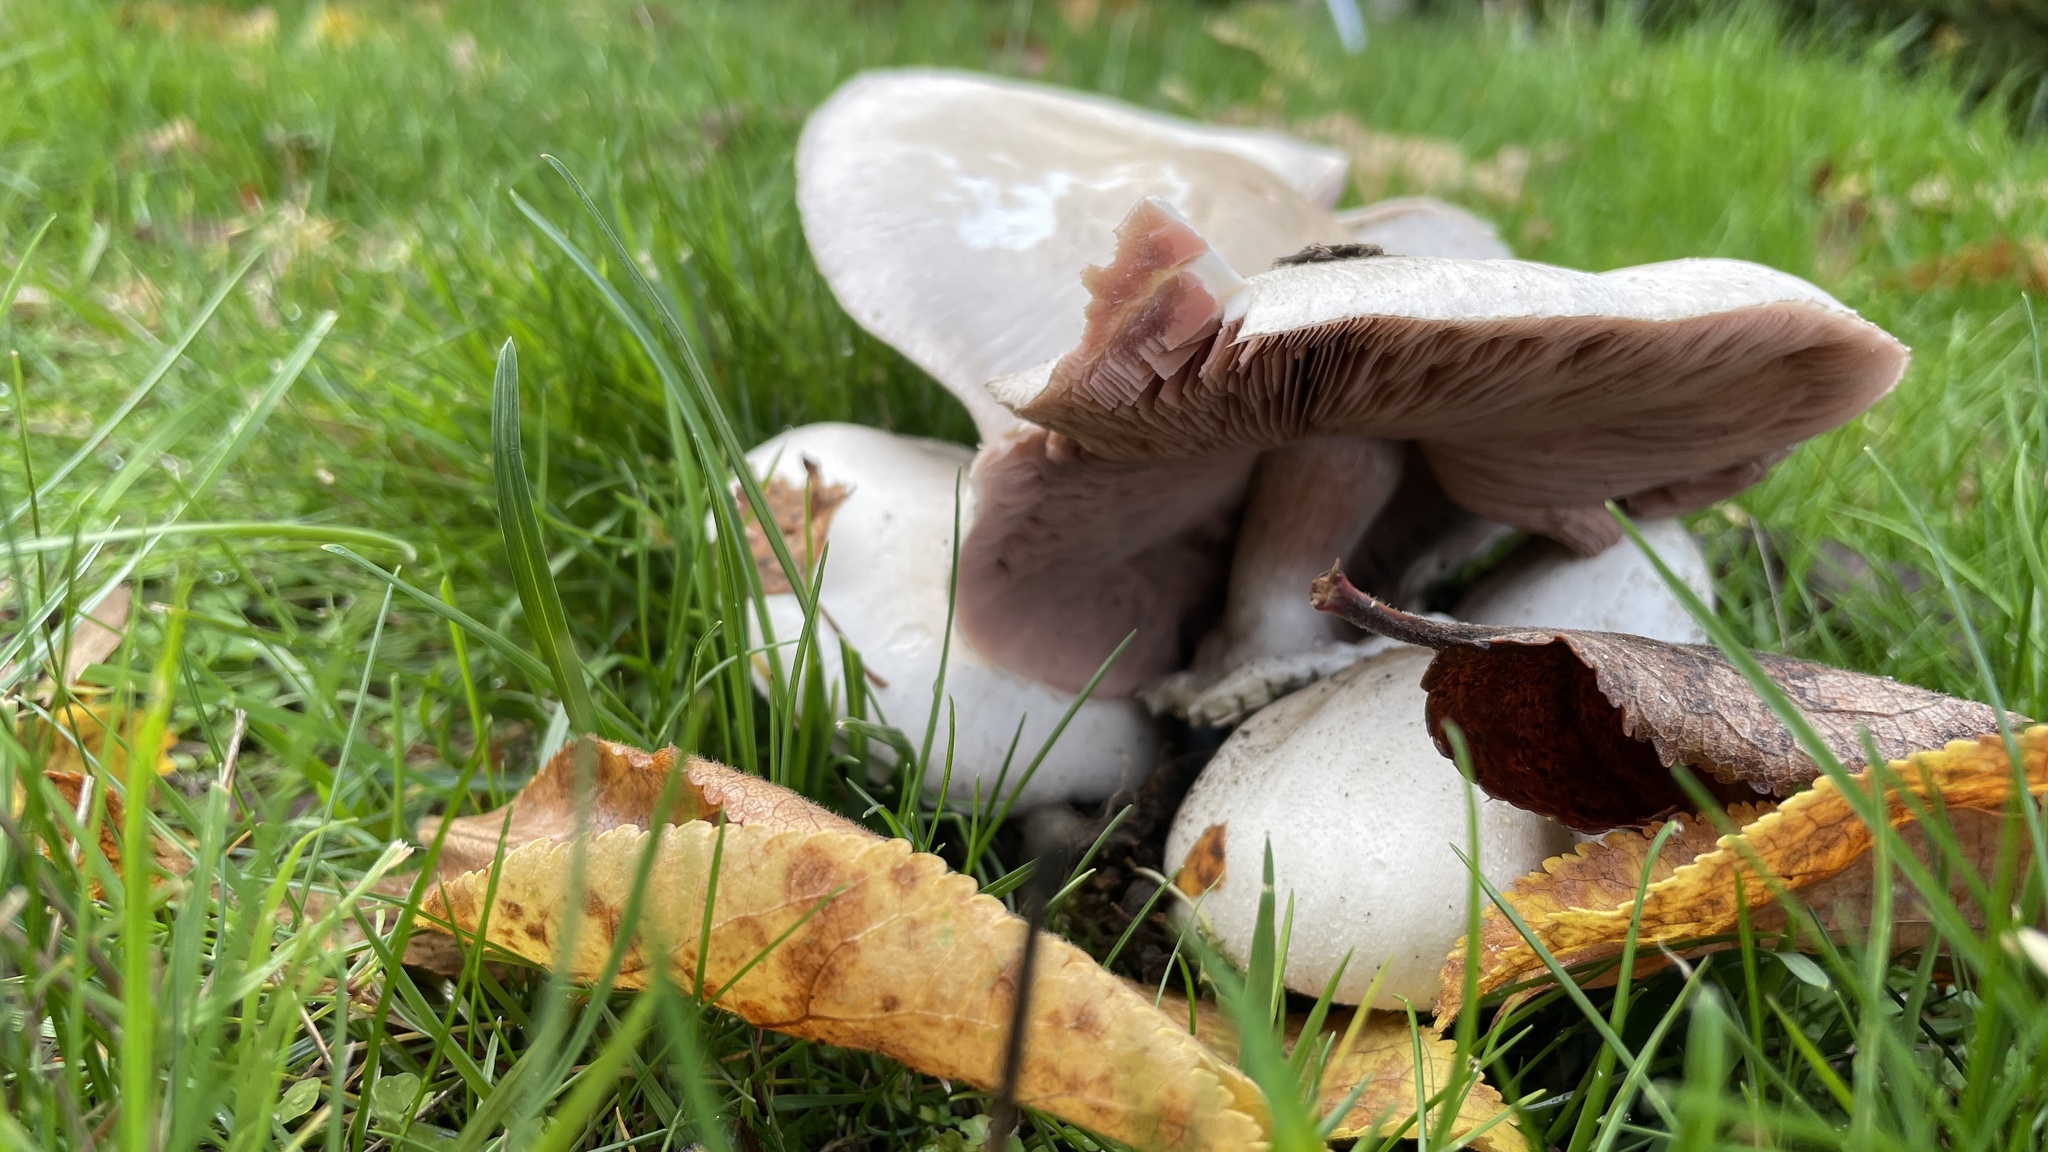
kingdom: Fungi
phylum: Basidiomycota
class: Agaricomycetes
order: Agaricales
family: Agaricaceae
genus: Agaricus
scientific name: Agaricus xanthodermus
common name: Yellow stainer
